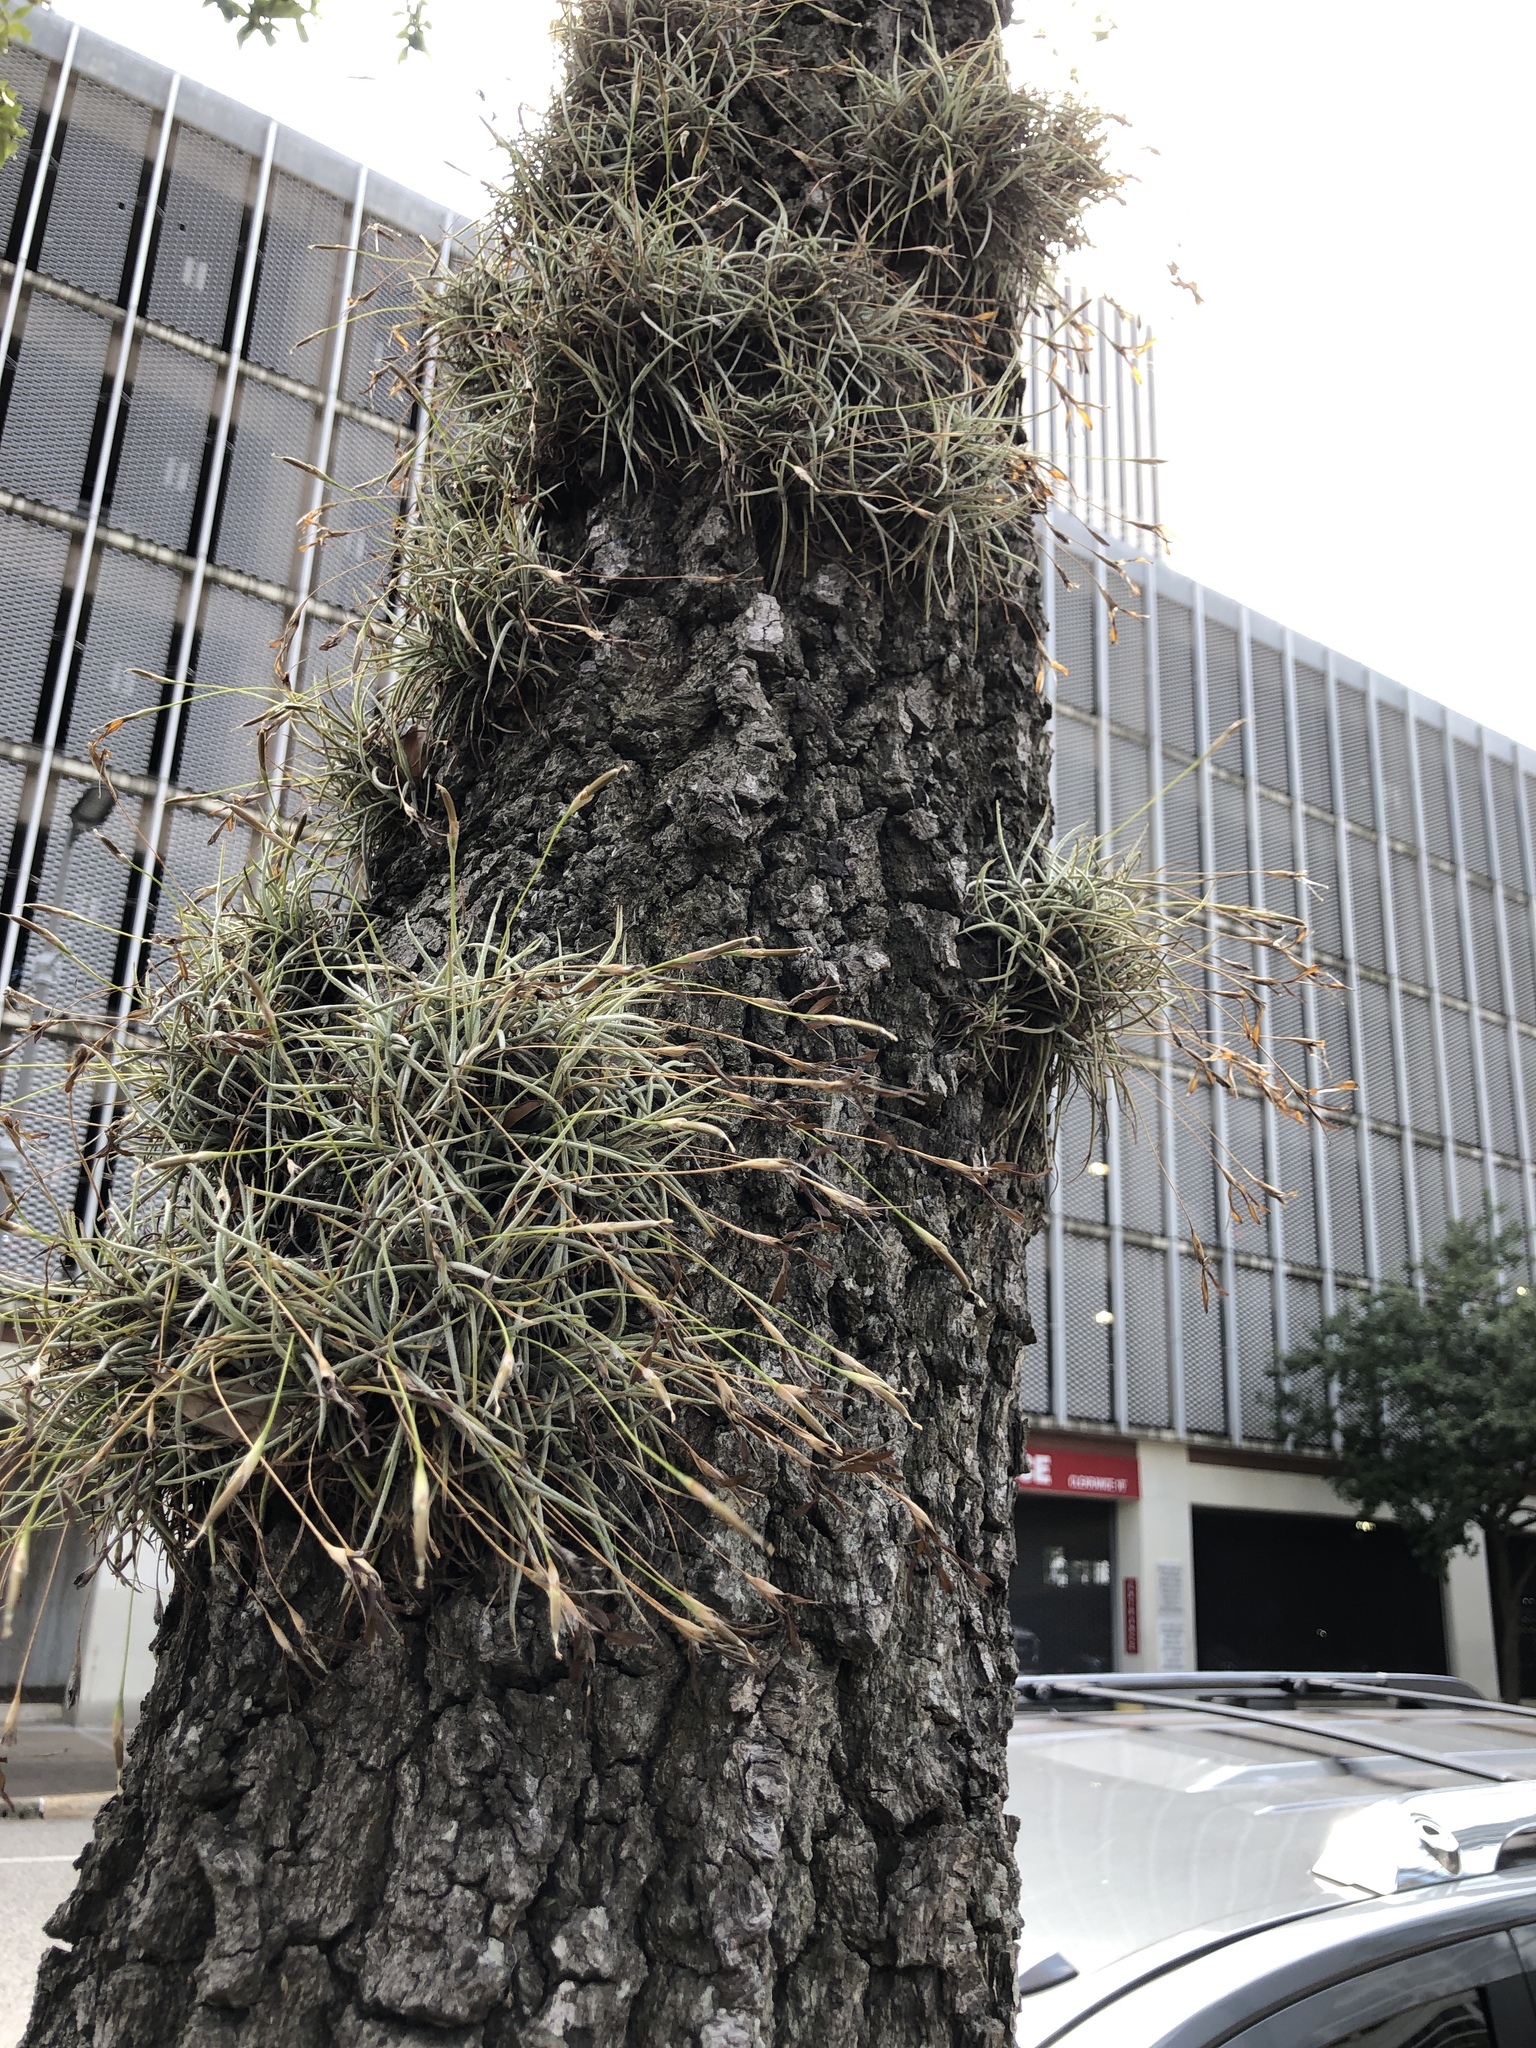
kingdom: Plantae
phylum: Tracheophyta
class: Liliopsida
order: Poales
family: Bromeliaceae
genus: Tillandsia
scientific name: Tillandsia recurvata
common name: Small ballmoss
